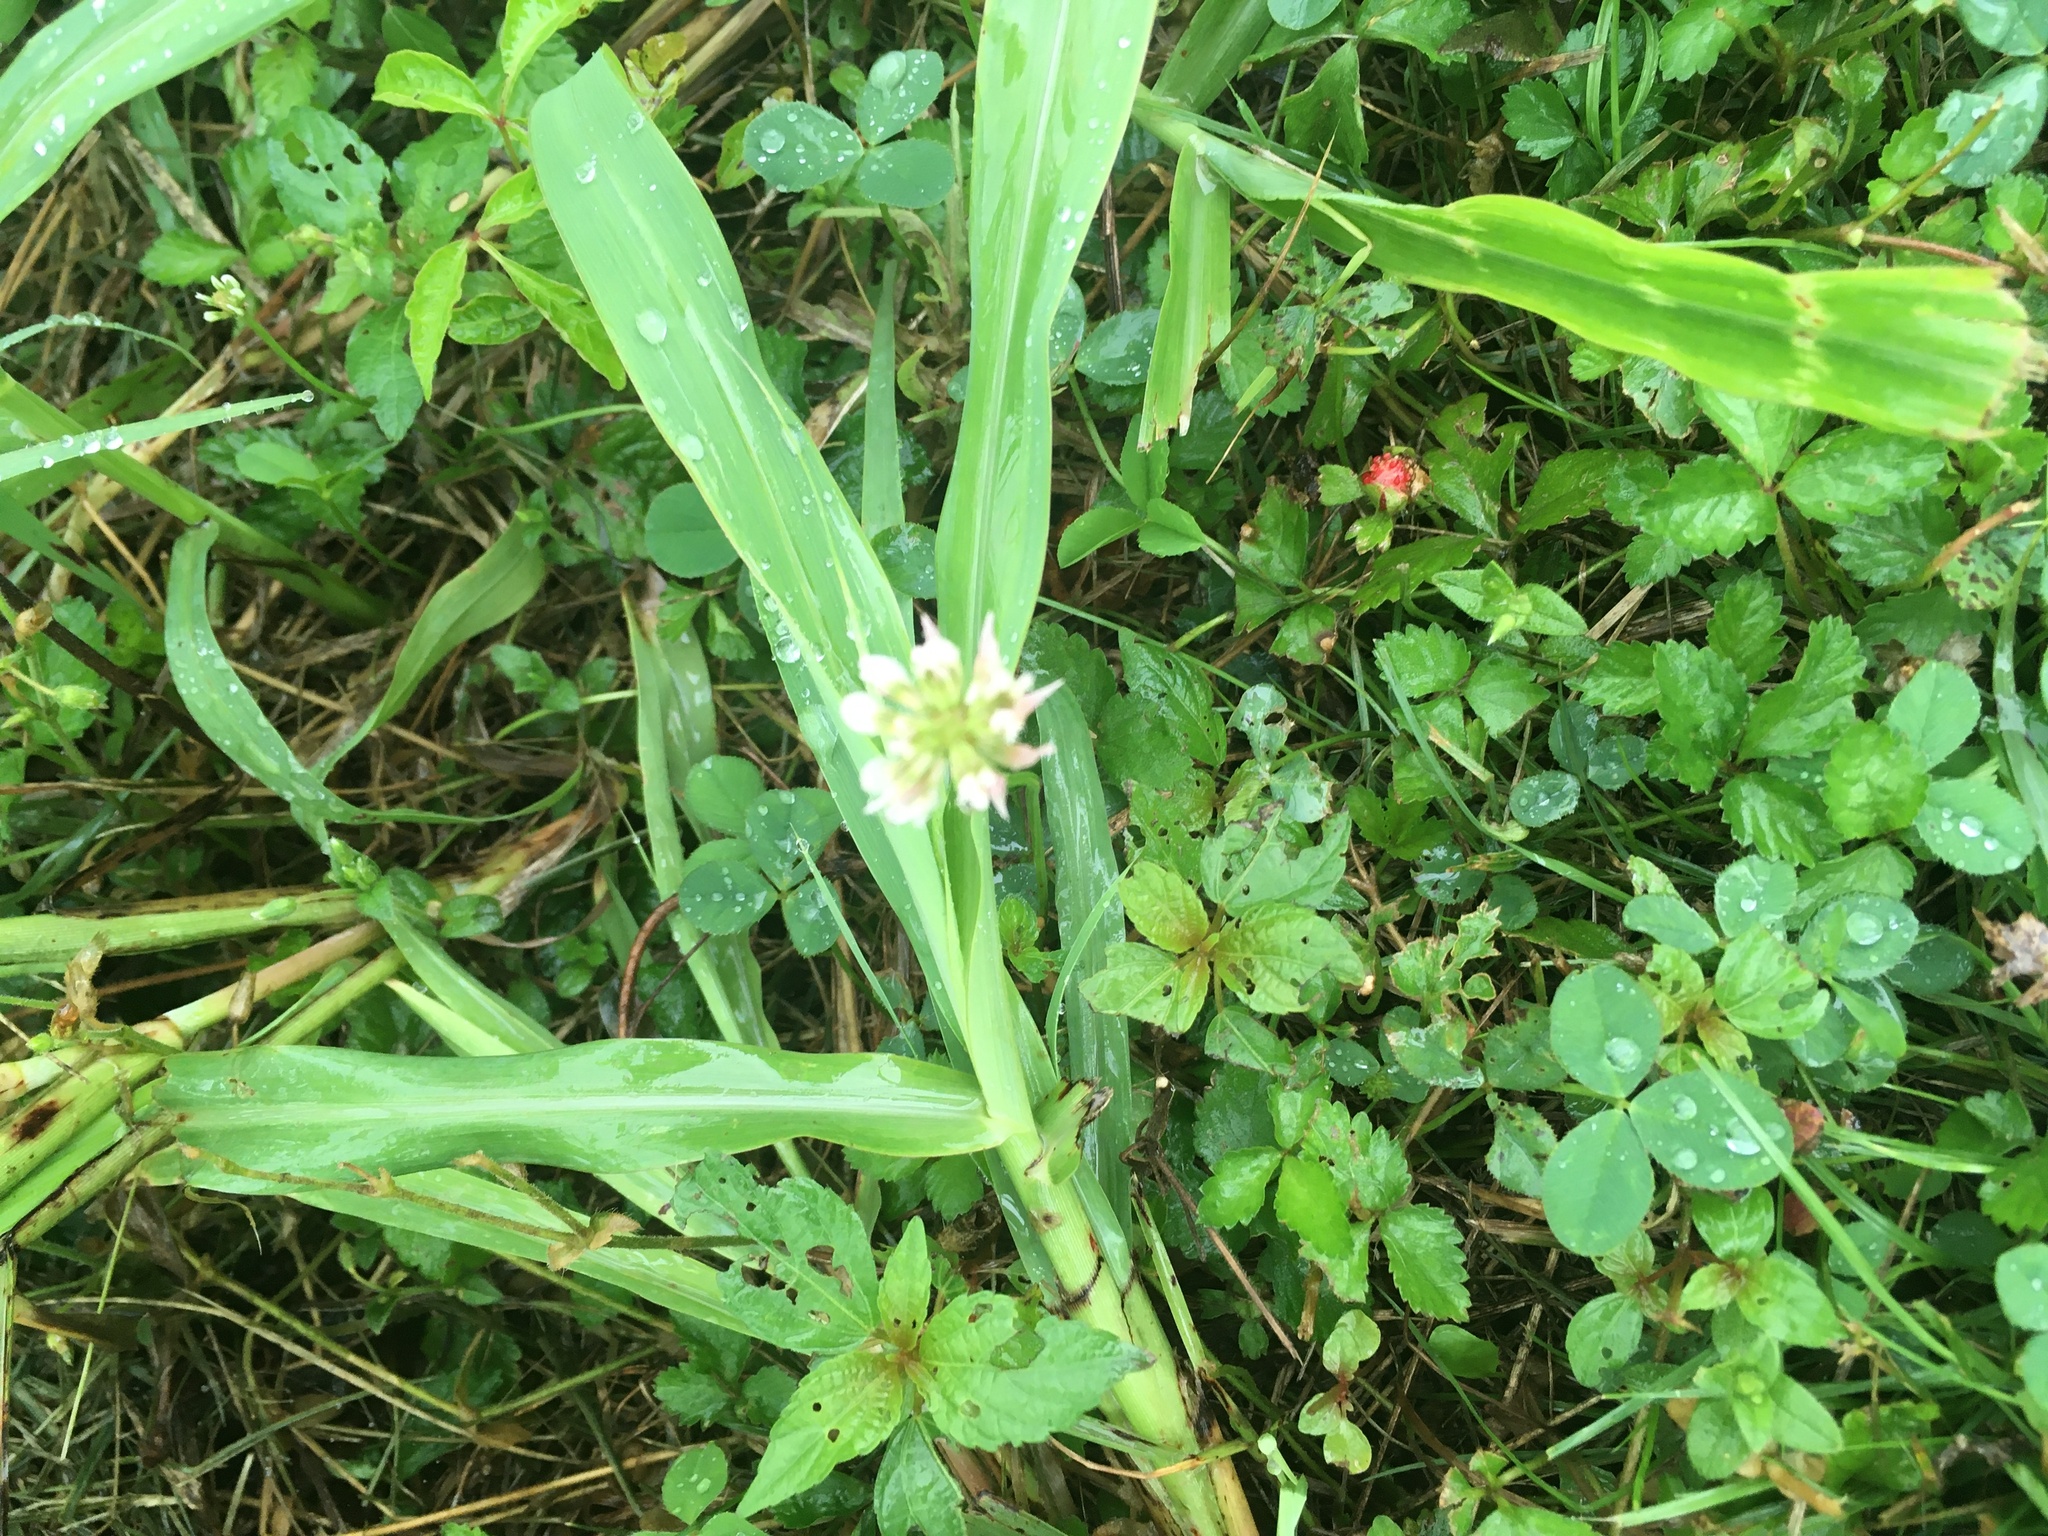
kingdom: Plantae
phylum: Tracheophyta
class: Magnoliopsida
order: Fabales
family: Fabaceae
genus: Trifolium
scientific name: Trifolium repens
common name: White clover
